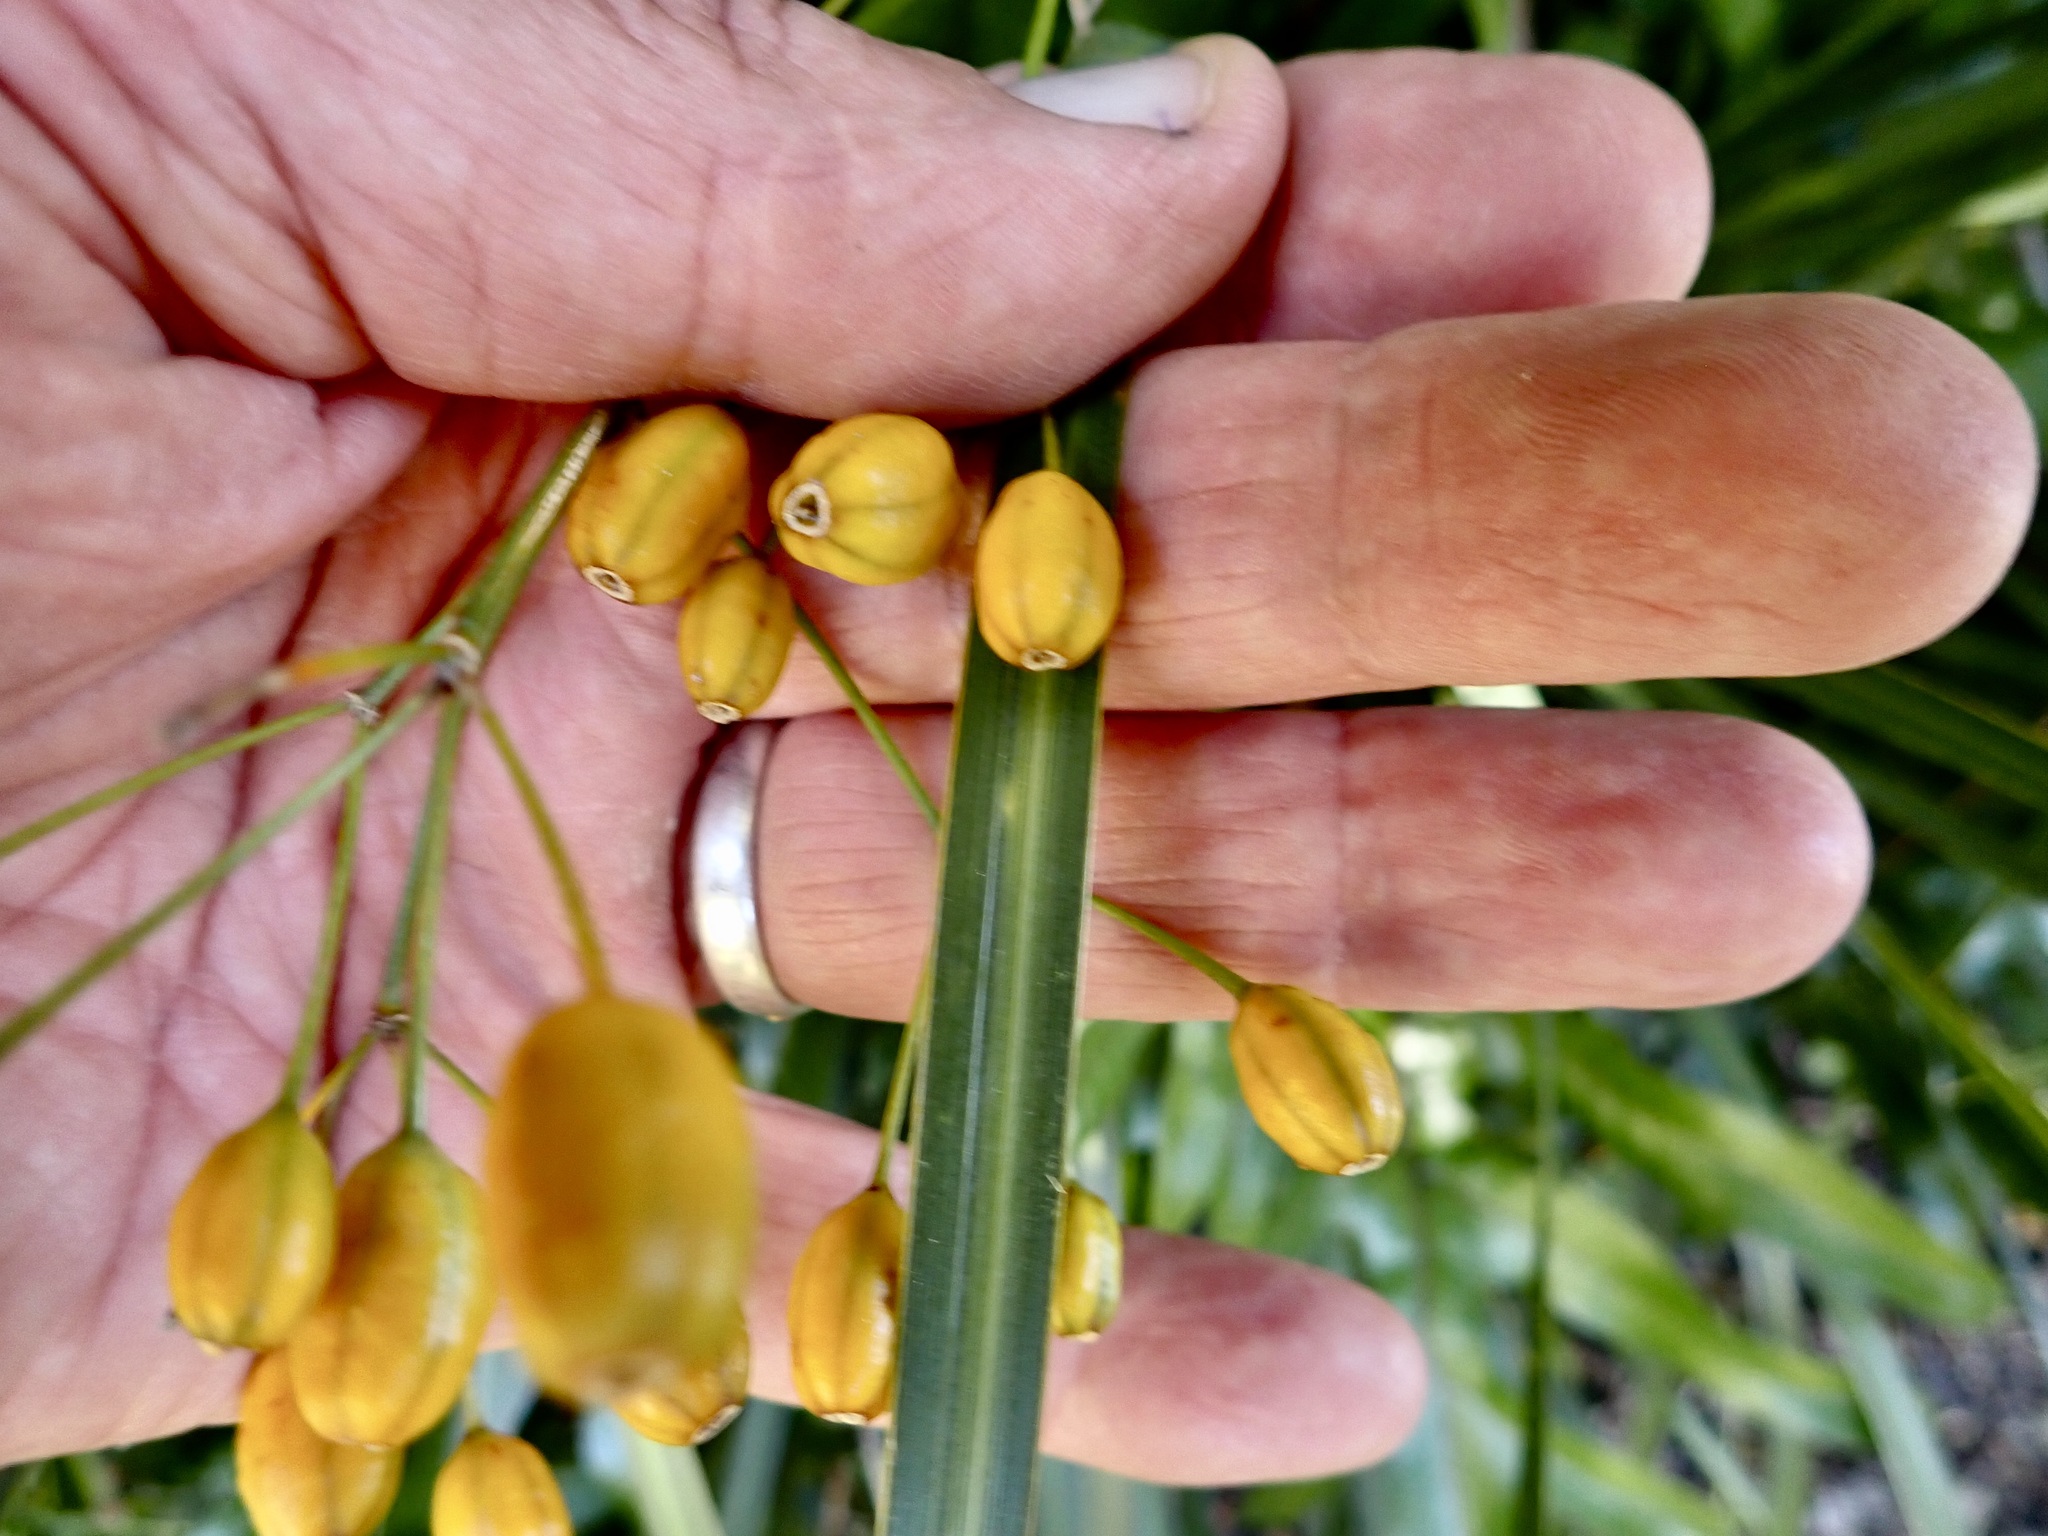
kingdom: Plantae
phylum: Tracheophyta
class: Liliopsida
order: Asparagales
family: Iridaceae
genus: Libertia
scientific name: Libertia ixioides
